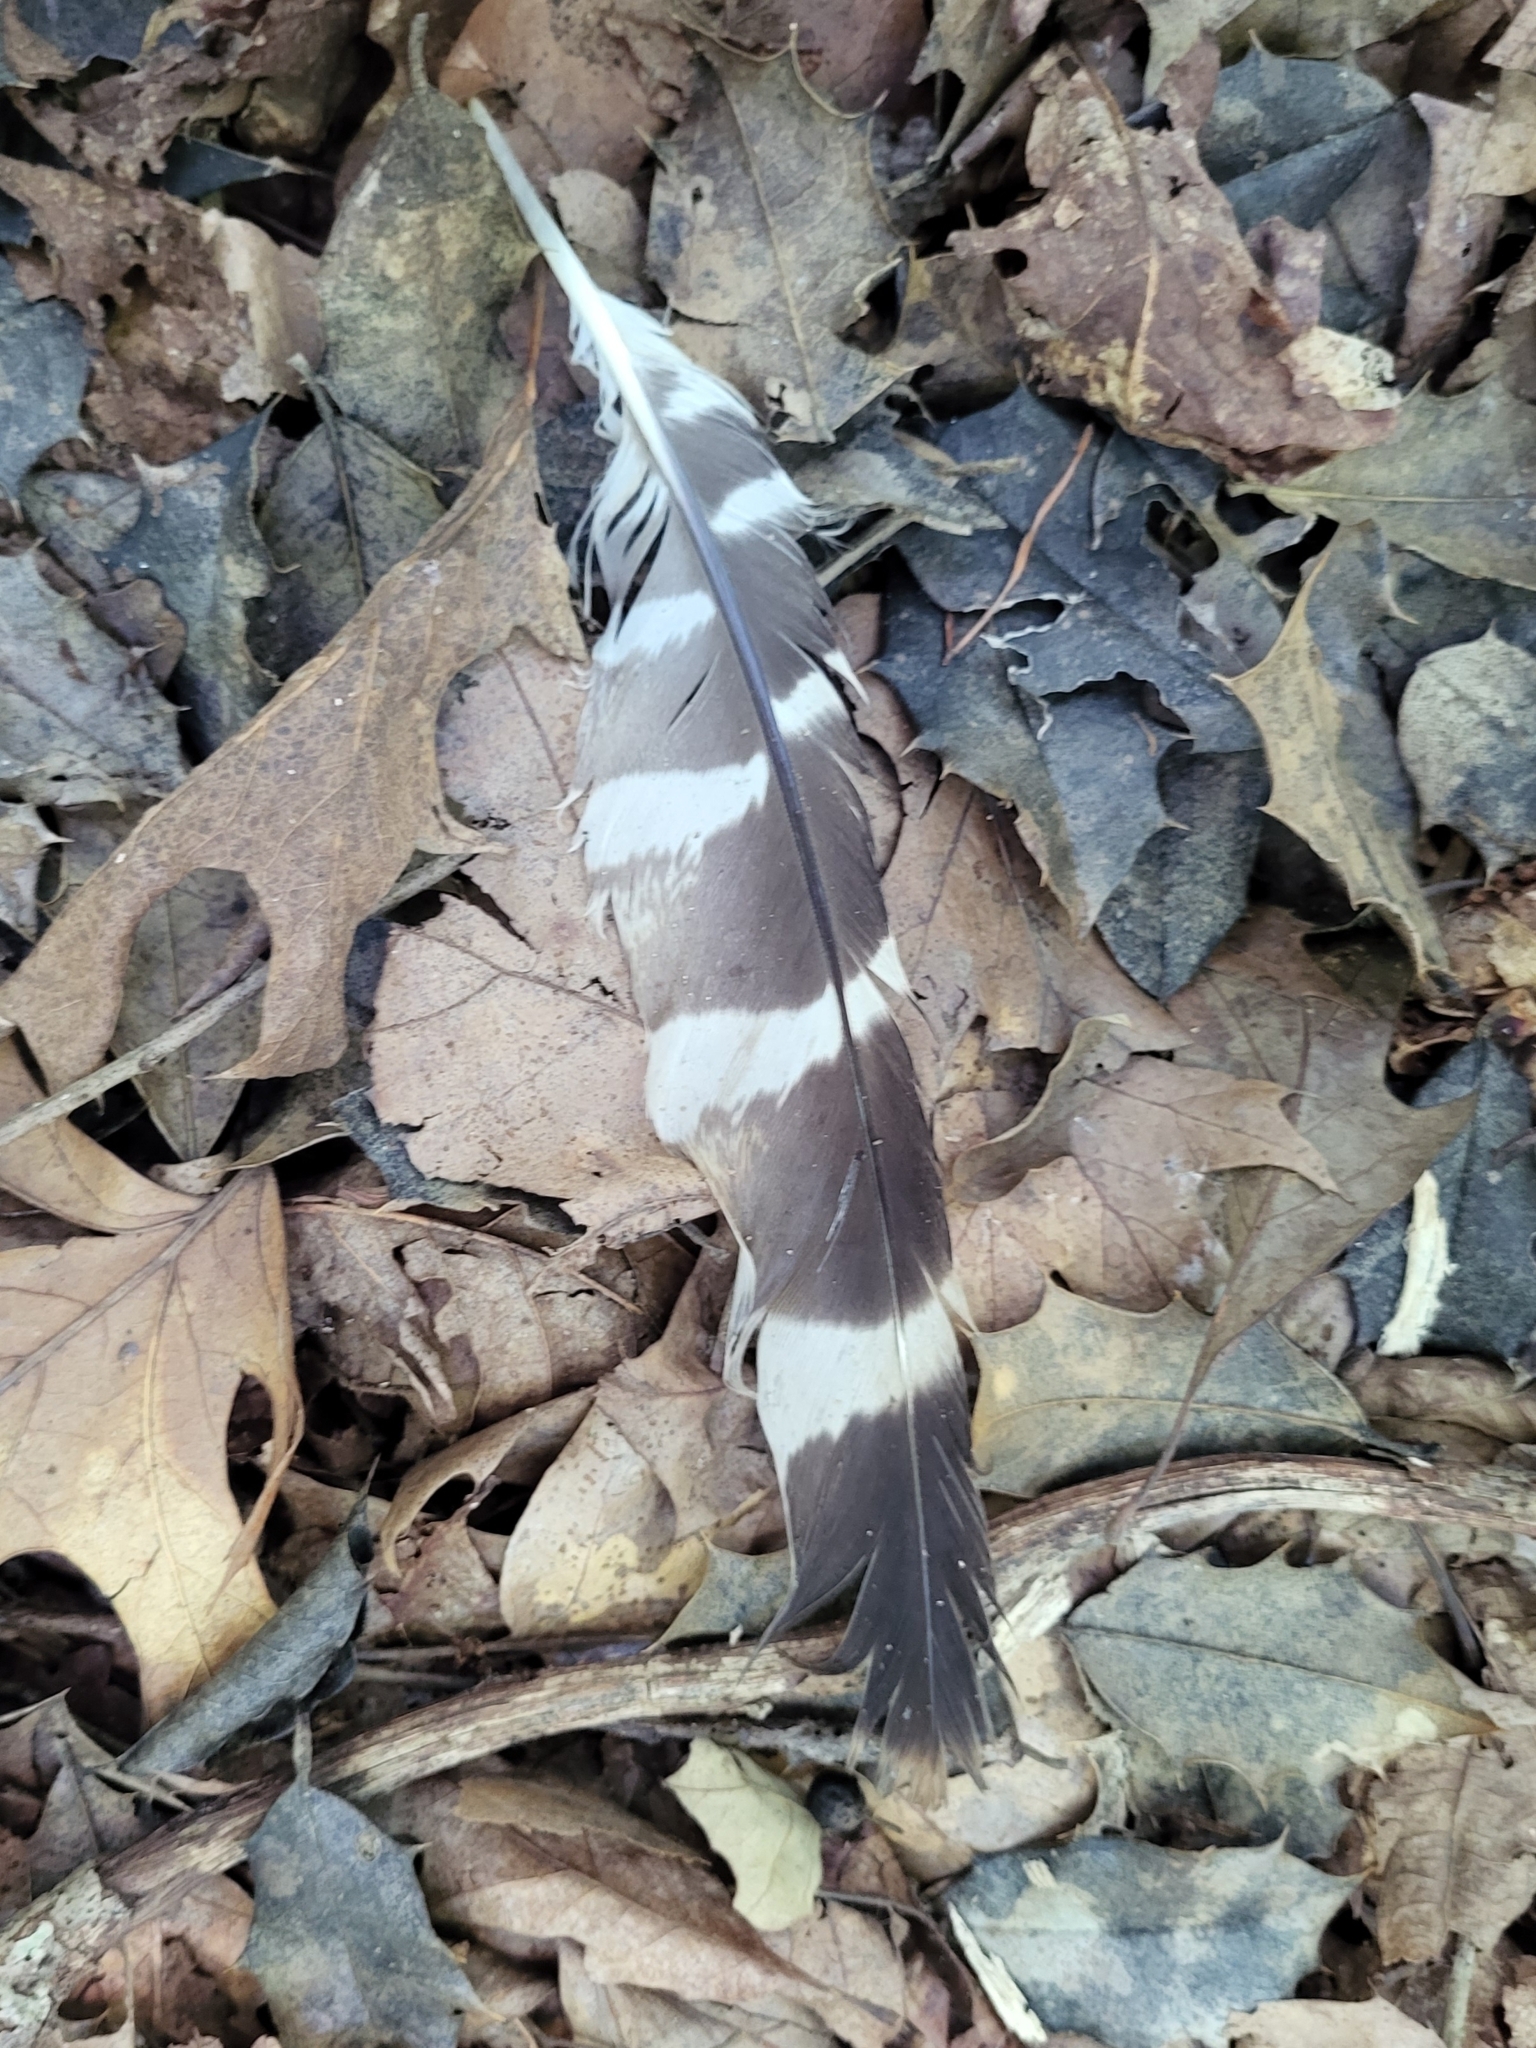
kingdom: Animalia
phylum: Chordata
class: Aves
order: Accipitriformes
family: Accipitridae
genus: Buteo
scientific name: Buteo lineatus
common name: Red-shouldered hawk
